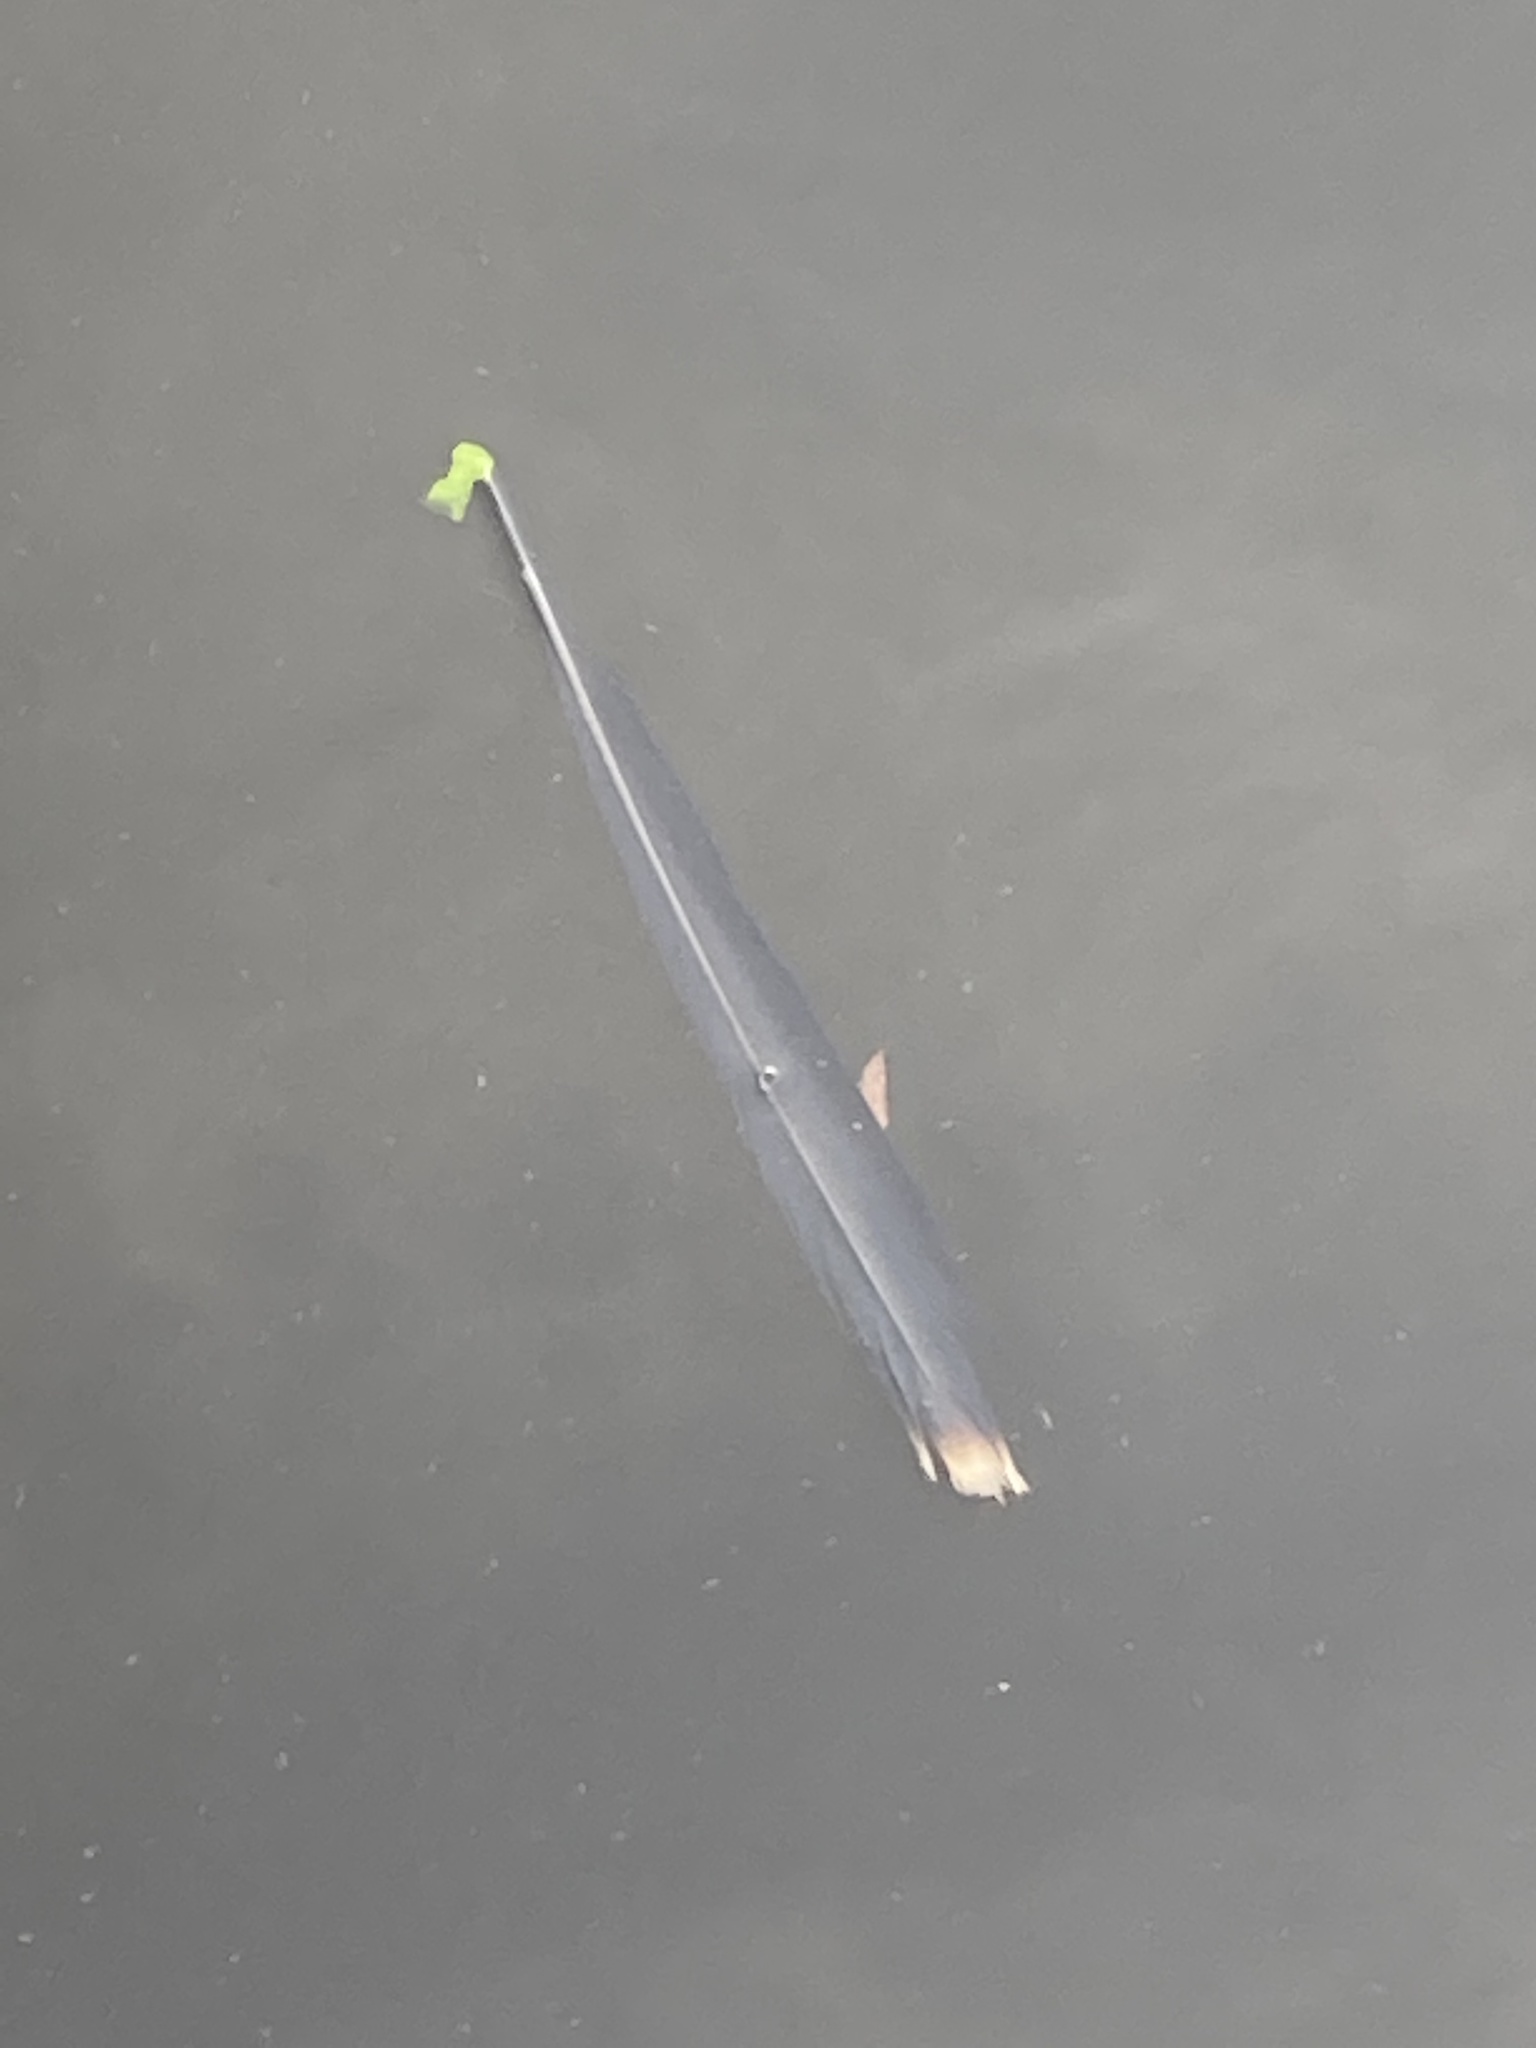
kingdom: Animalia
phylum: Chordata
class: Aves
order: Suliformes
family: Anhingidae
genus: Anhinga
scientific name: Anhinga anhinga
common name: Anhinga
